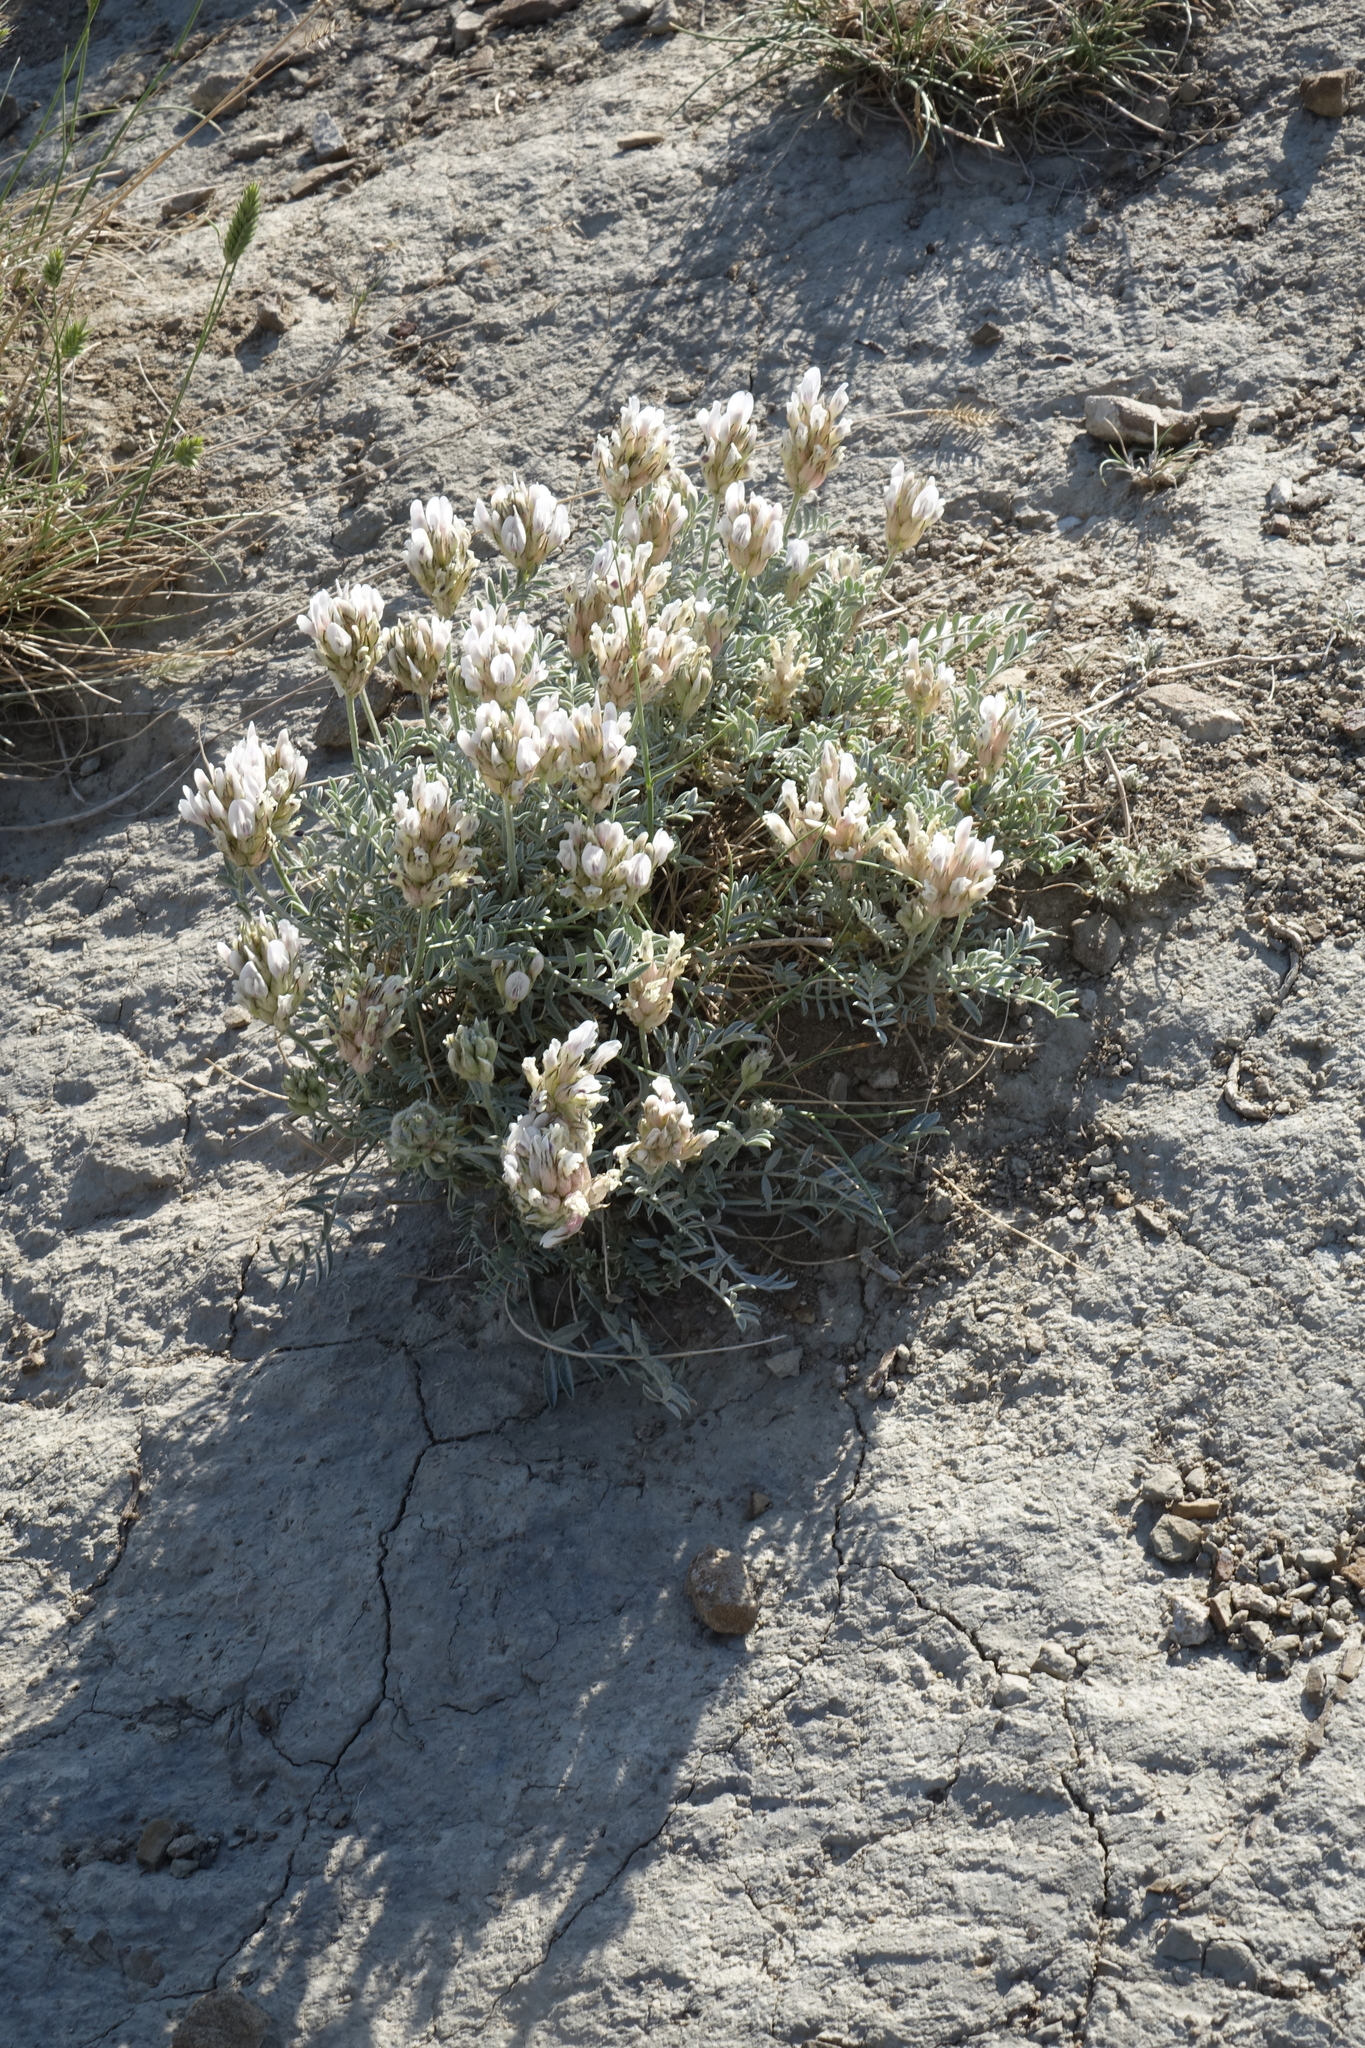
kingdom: Plantae
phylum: Tracheophyta
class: Magnoliopsida
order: Fabales
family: Fabaceae
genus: Astragalus
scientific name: Astragalus dilutus
